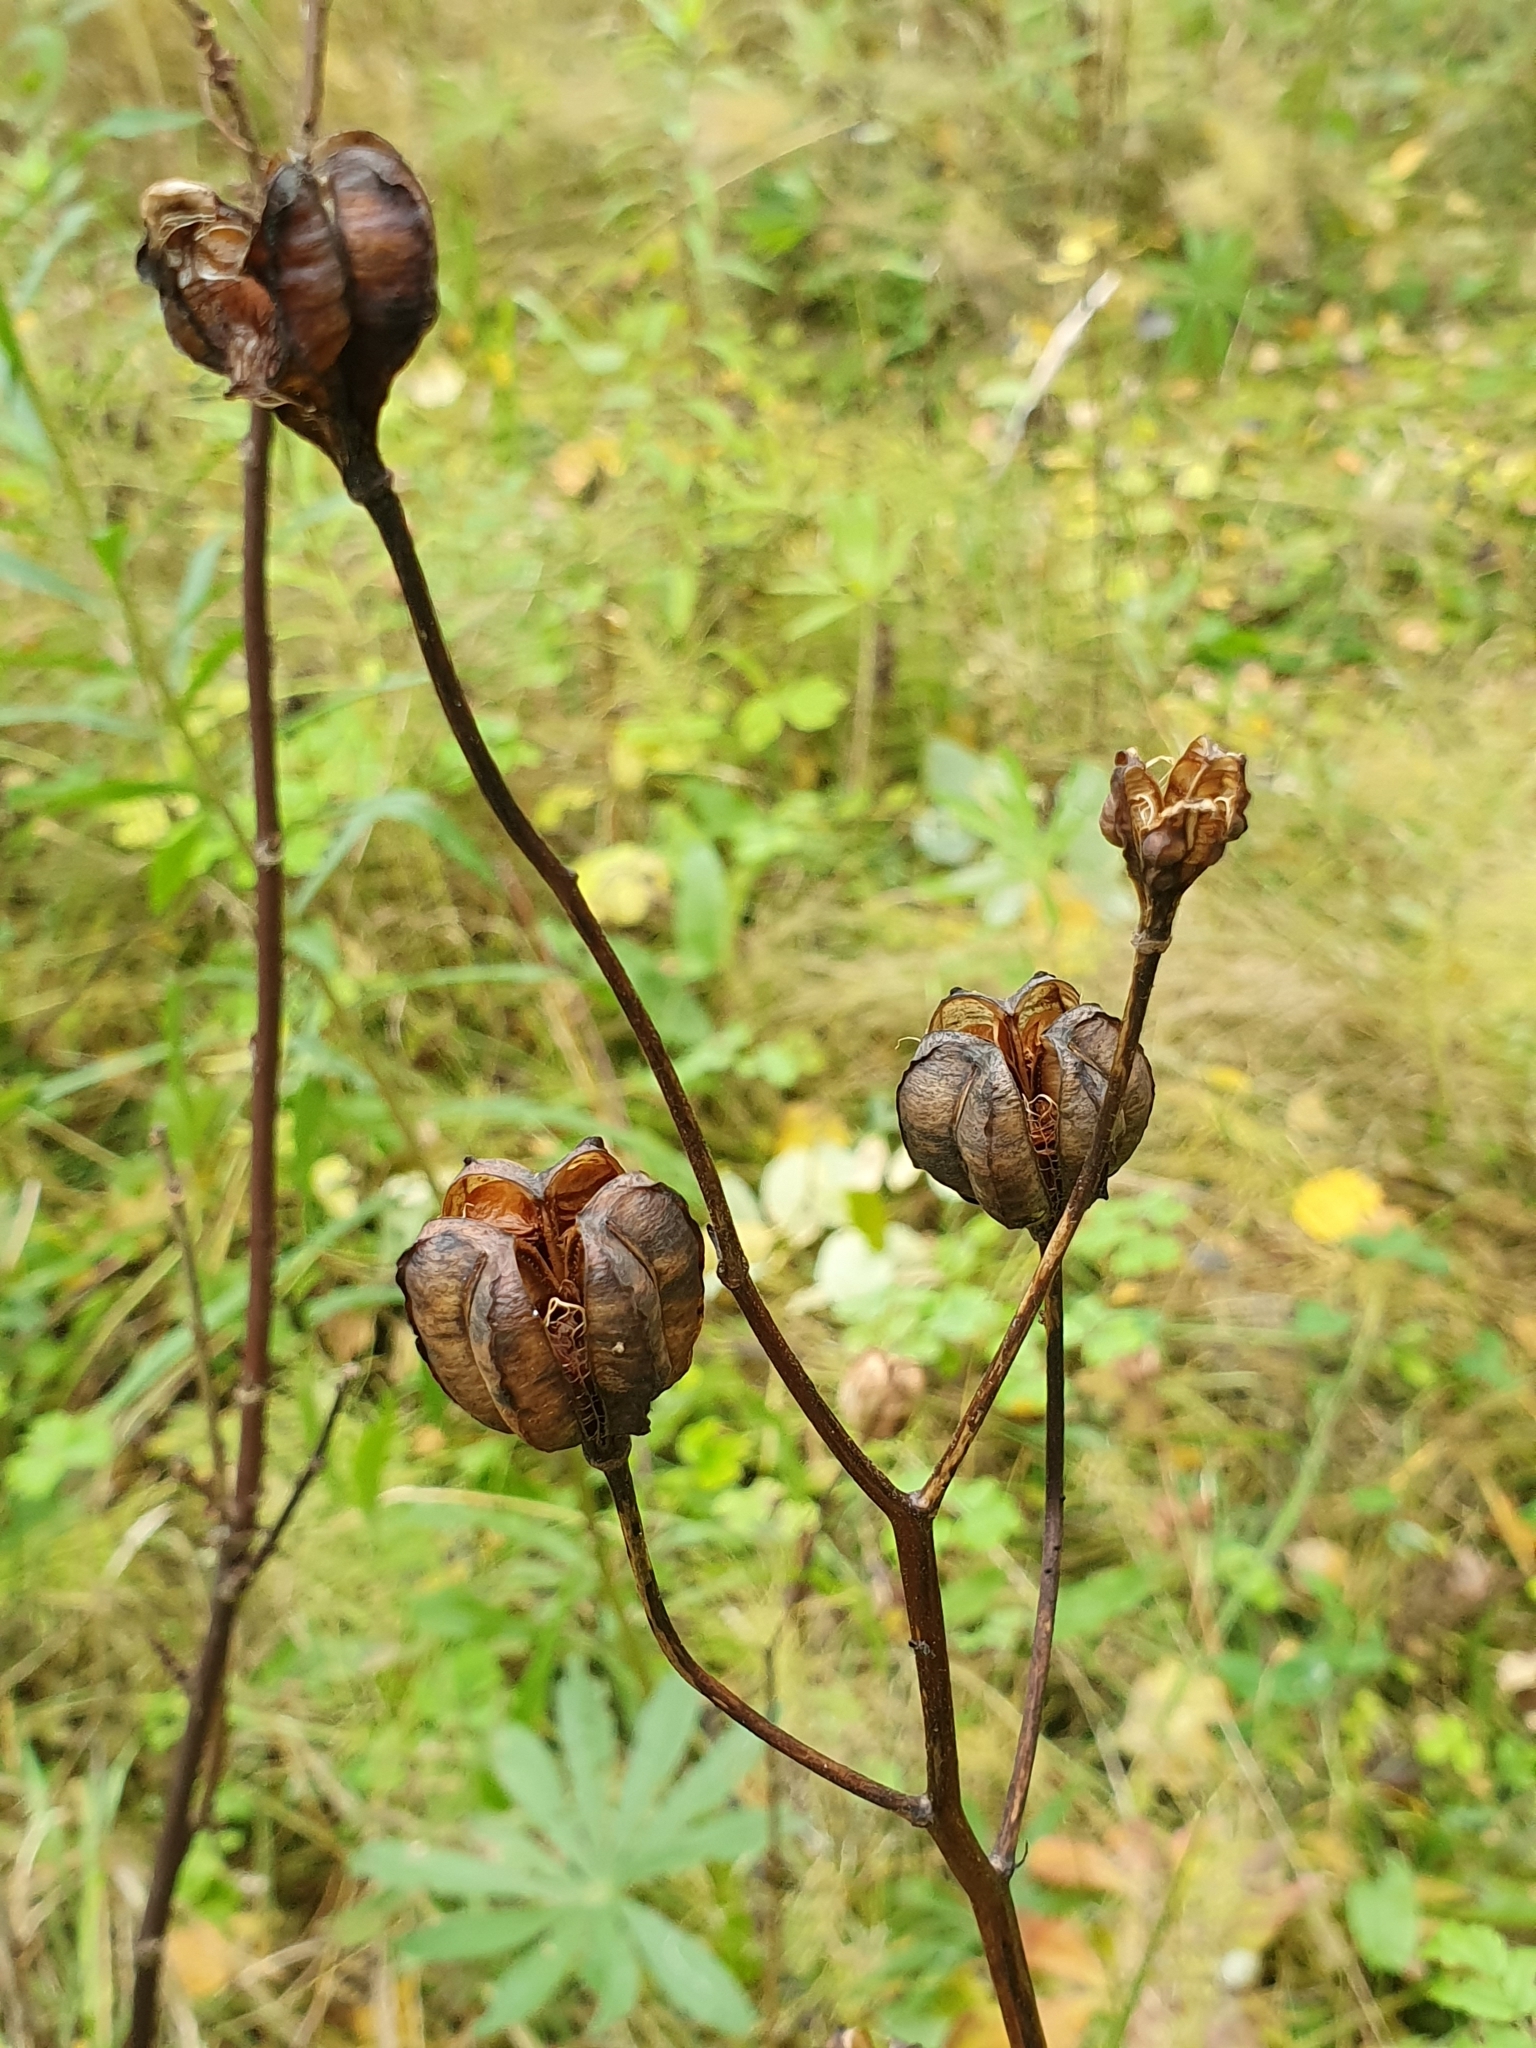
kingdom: Plantae
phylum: Tracheophyta
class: Liliopsida
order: Liliales
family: Liliaceae
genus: Lilium
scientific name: Lilium martagon
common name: Martagon lily
